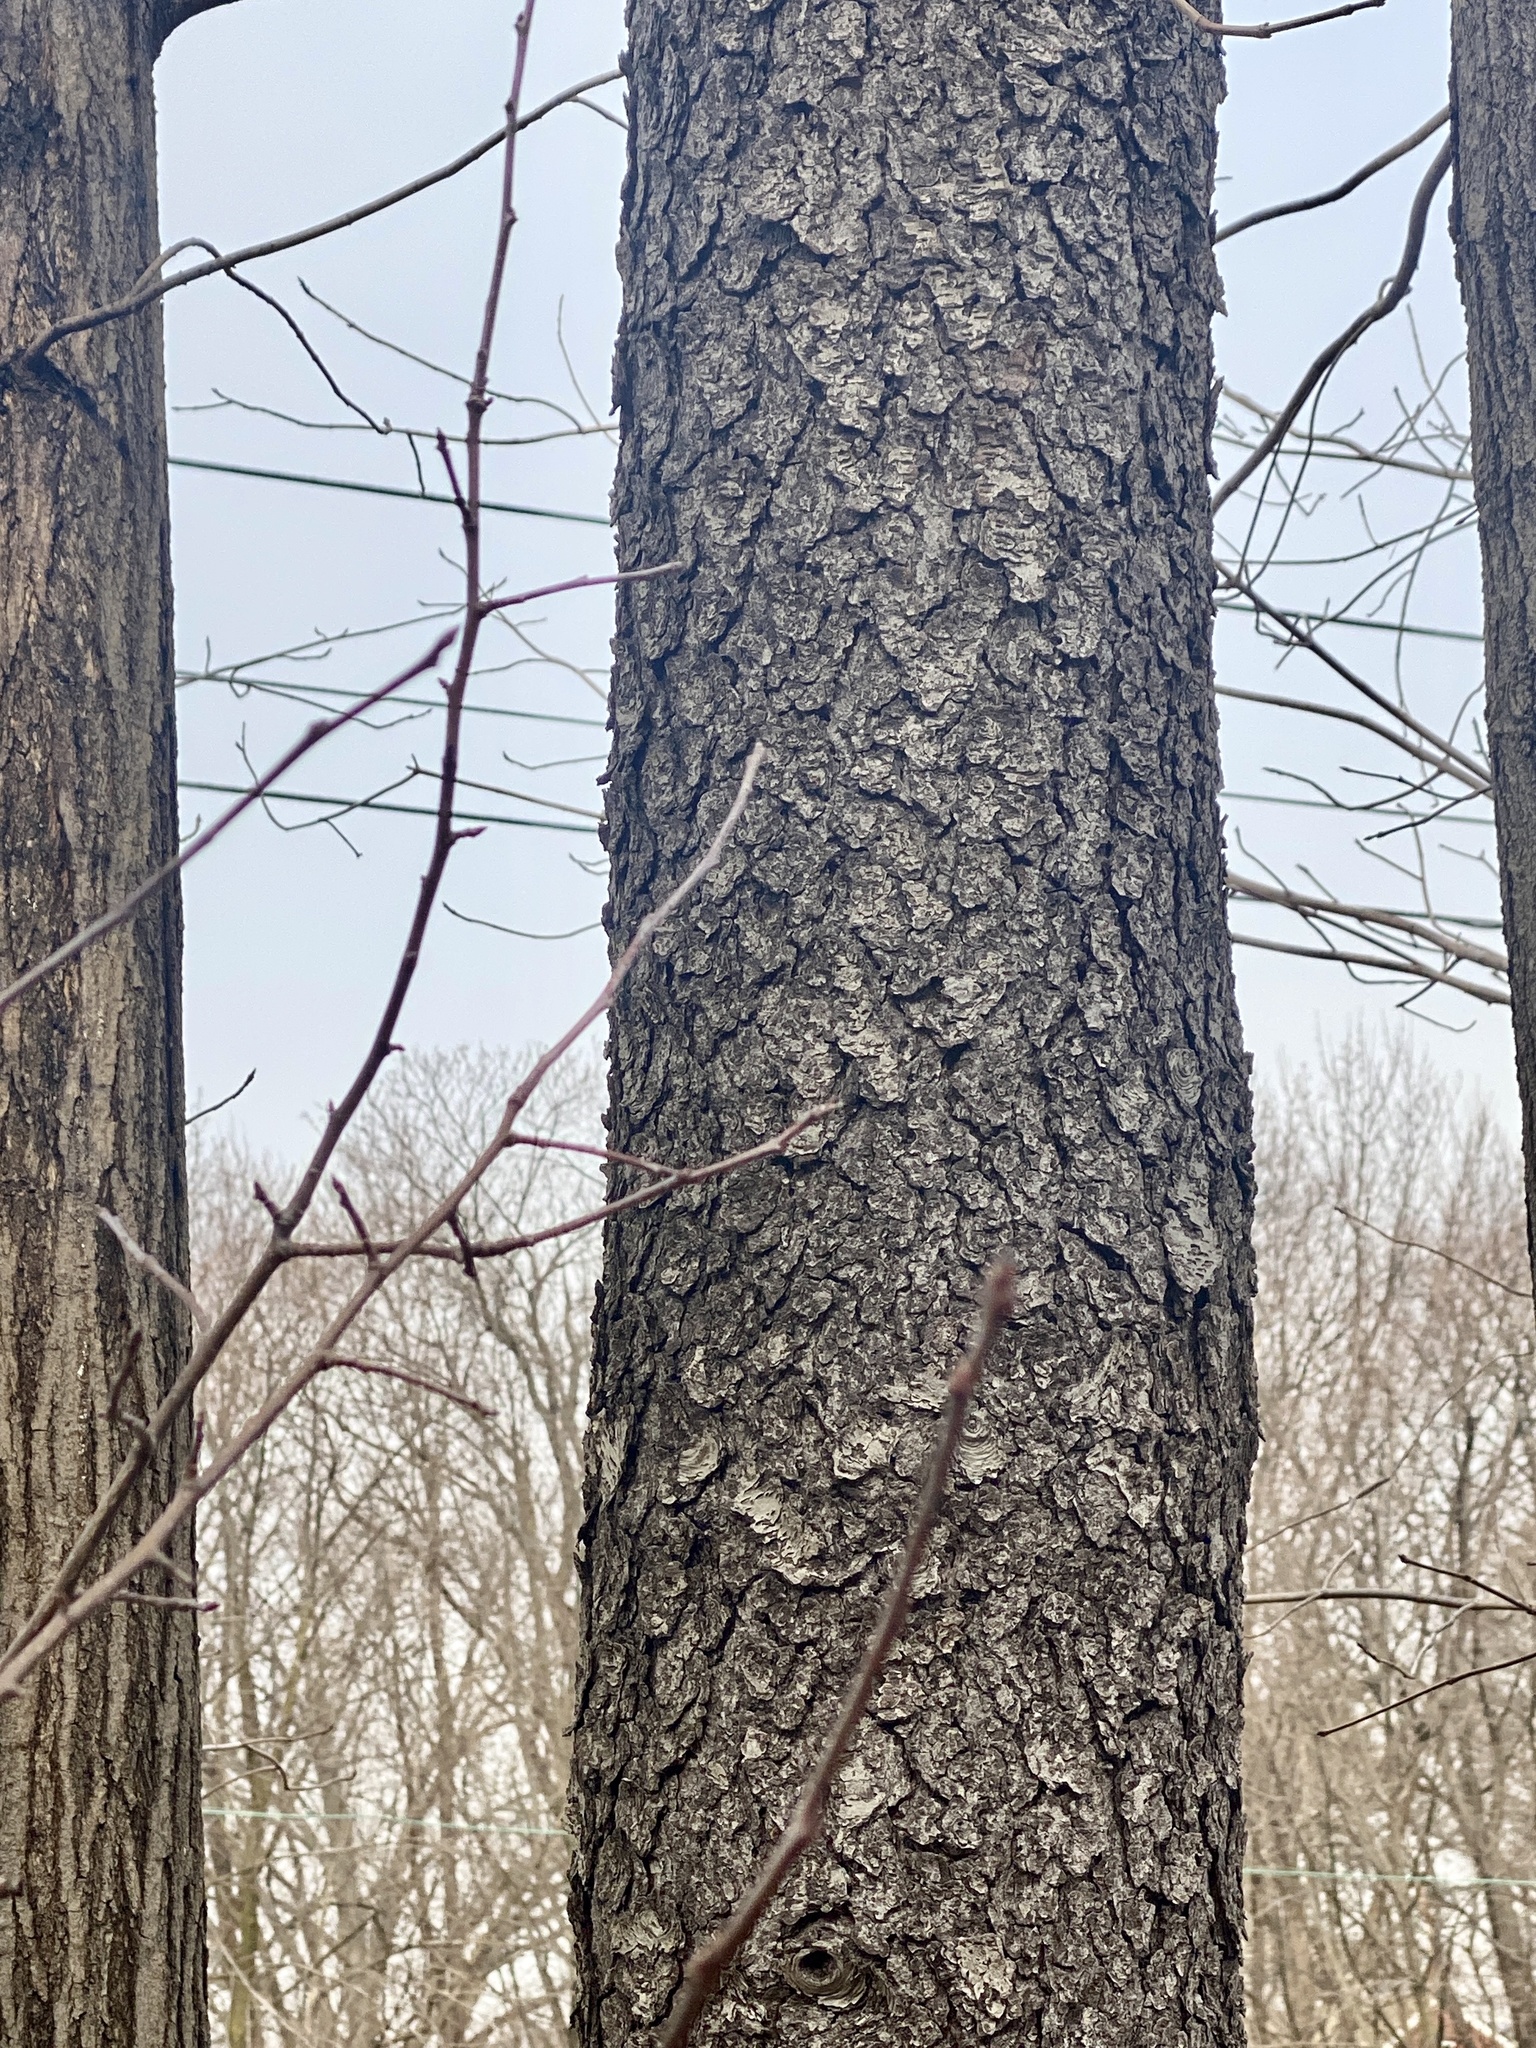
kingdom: Plantae
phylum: Tracheophyta
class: Magnoliopsida
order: Rosales
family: Rosaceae
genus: Prunus
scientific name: Prunus serotina
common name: Black cherry
